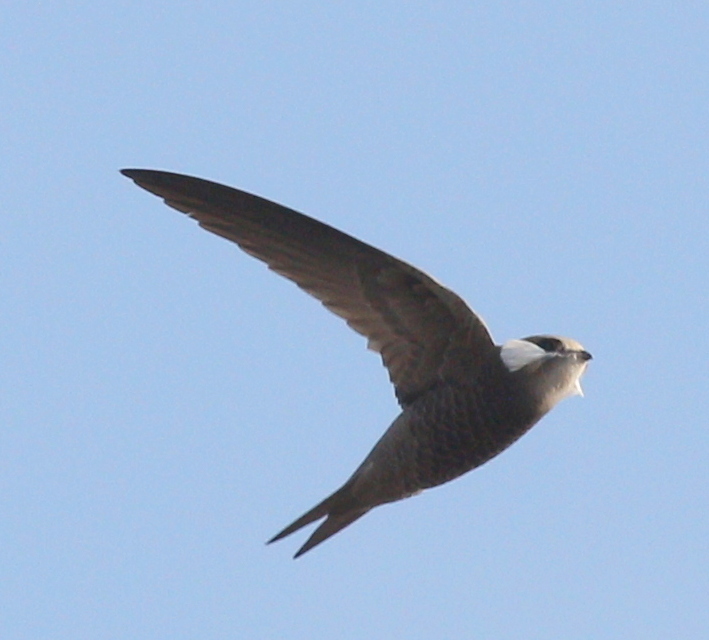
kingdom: Animalia
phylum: Chordata
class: Aves
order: Apodiformes
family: Apodidae
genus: Apus
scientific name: Apus pallidus
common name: Pallid swift
